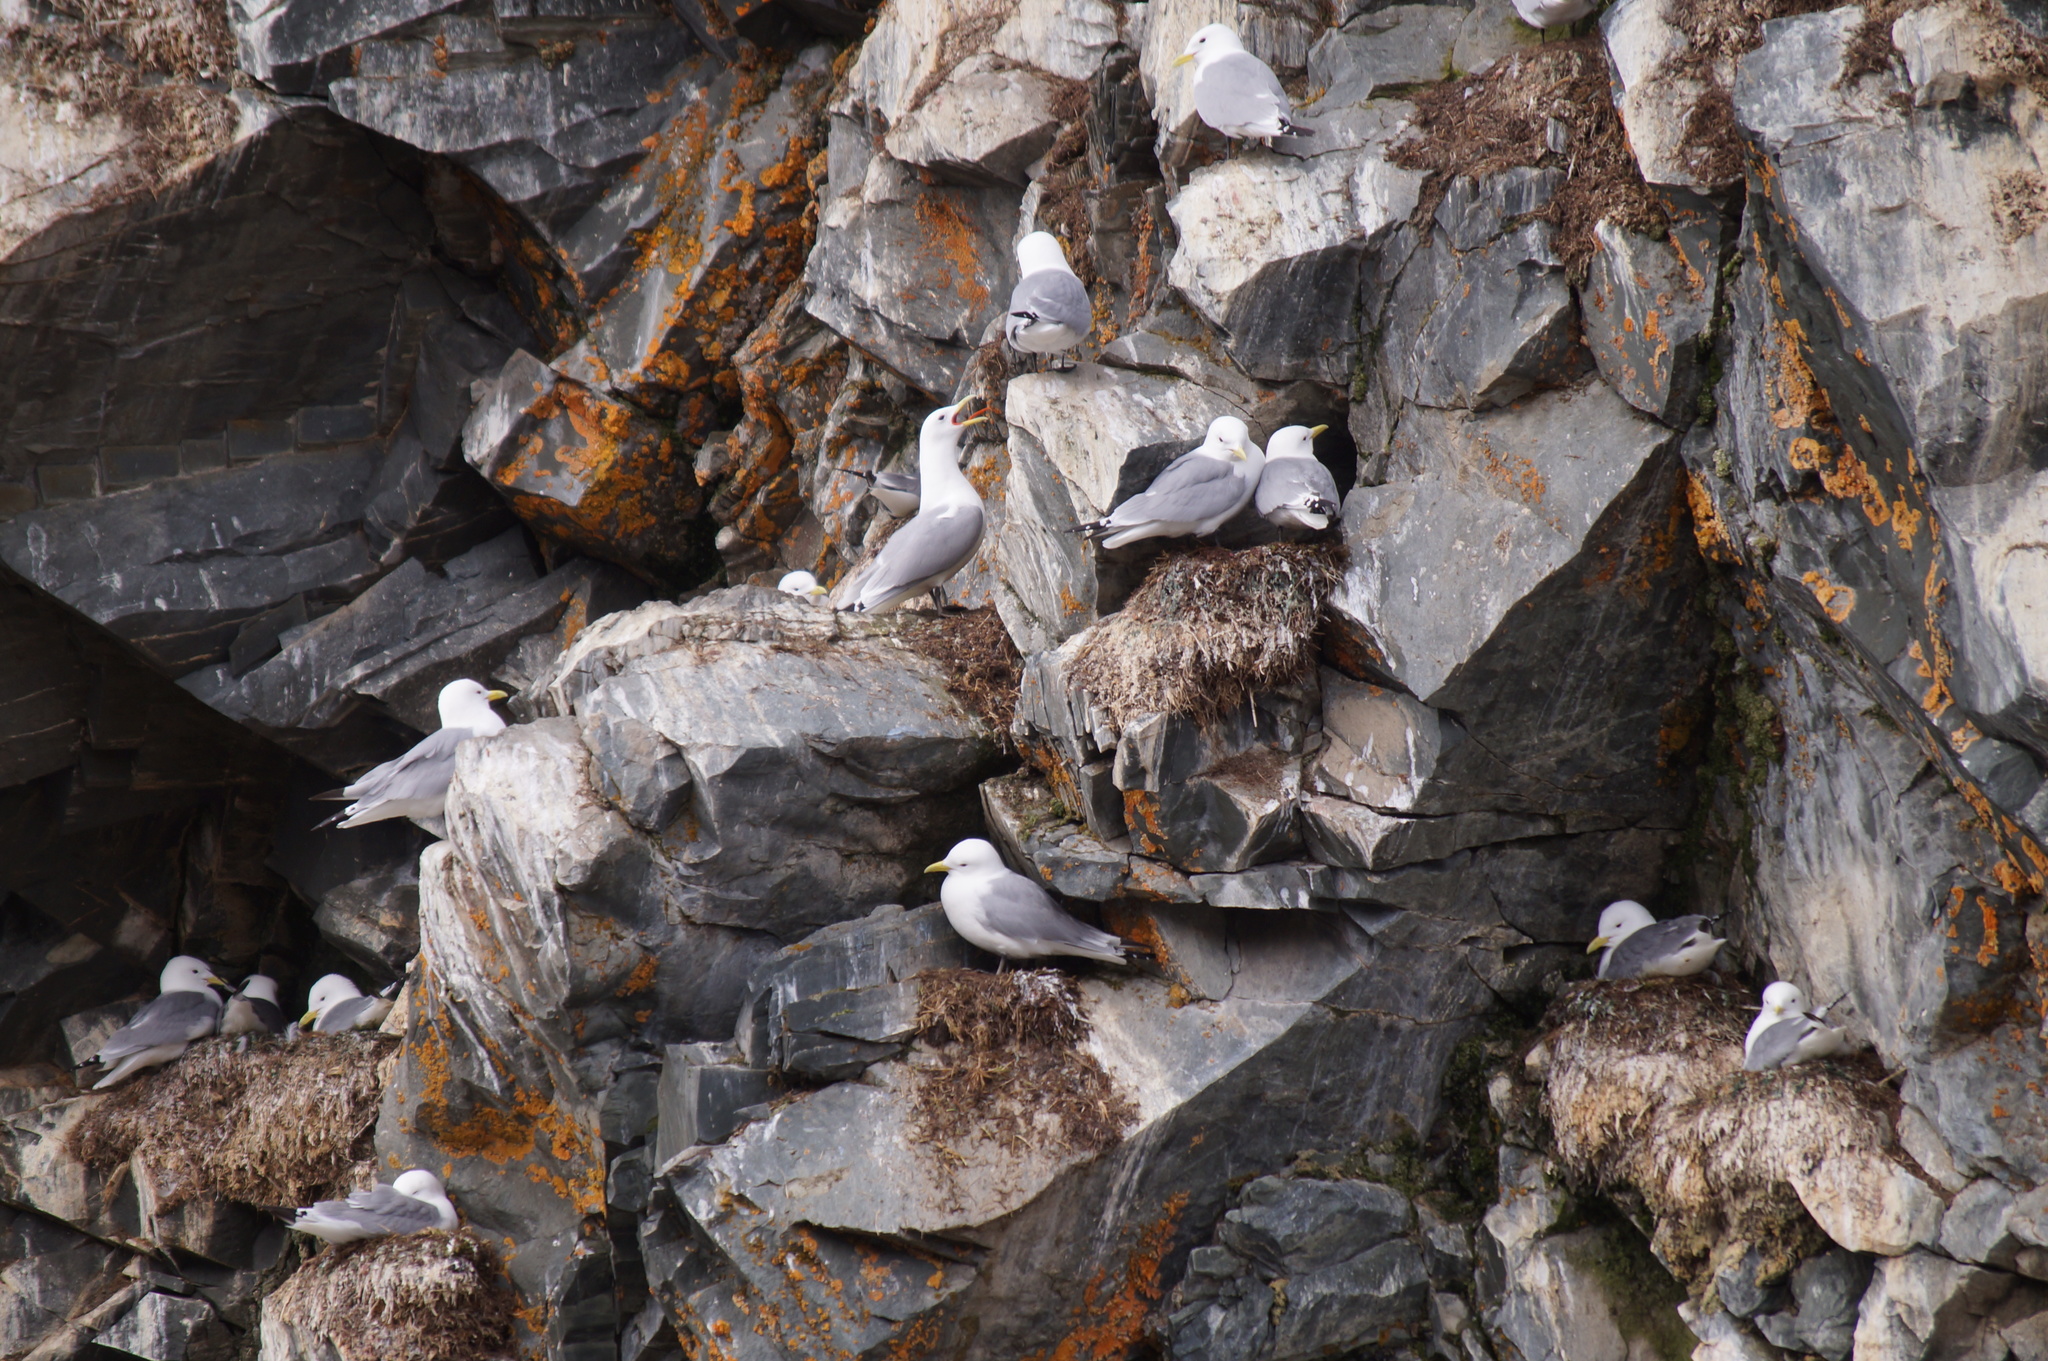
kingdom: Animalia
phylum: Chordata
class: Aves
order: Charadriiformes
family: Laridae
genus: Rissa
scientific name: Rissa tridactyla
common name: Black-legged kittiwake
